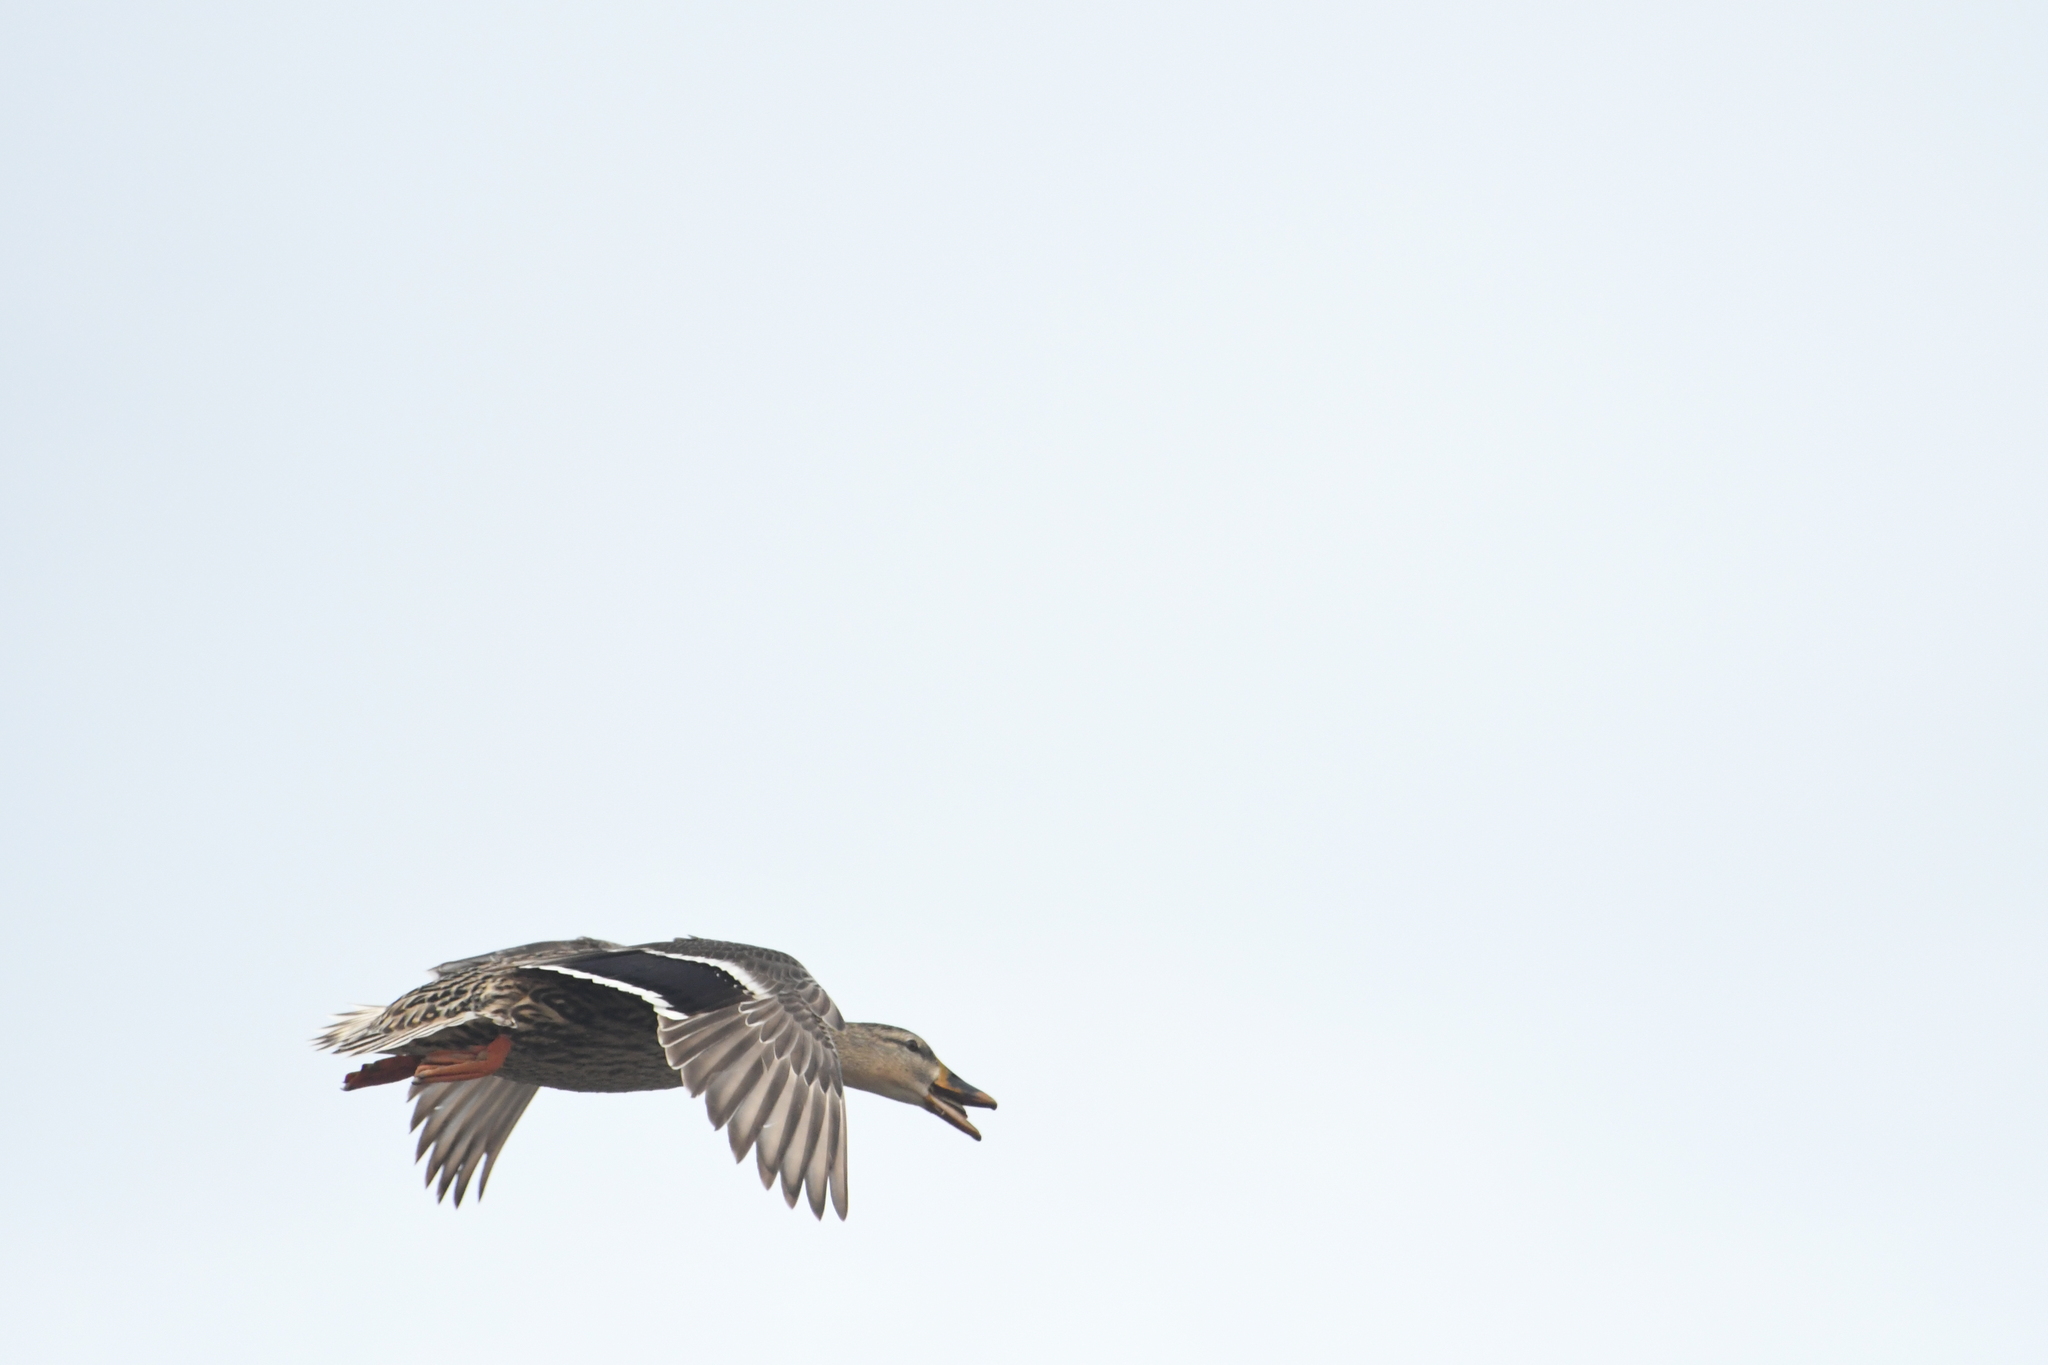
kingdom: Animalia
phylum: Chordata
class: Aves
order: Anseriformes
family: Anatidae
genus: Anas
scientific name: Anas platyrhynchos
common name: Mallard
